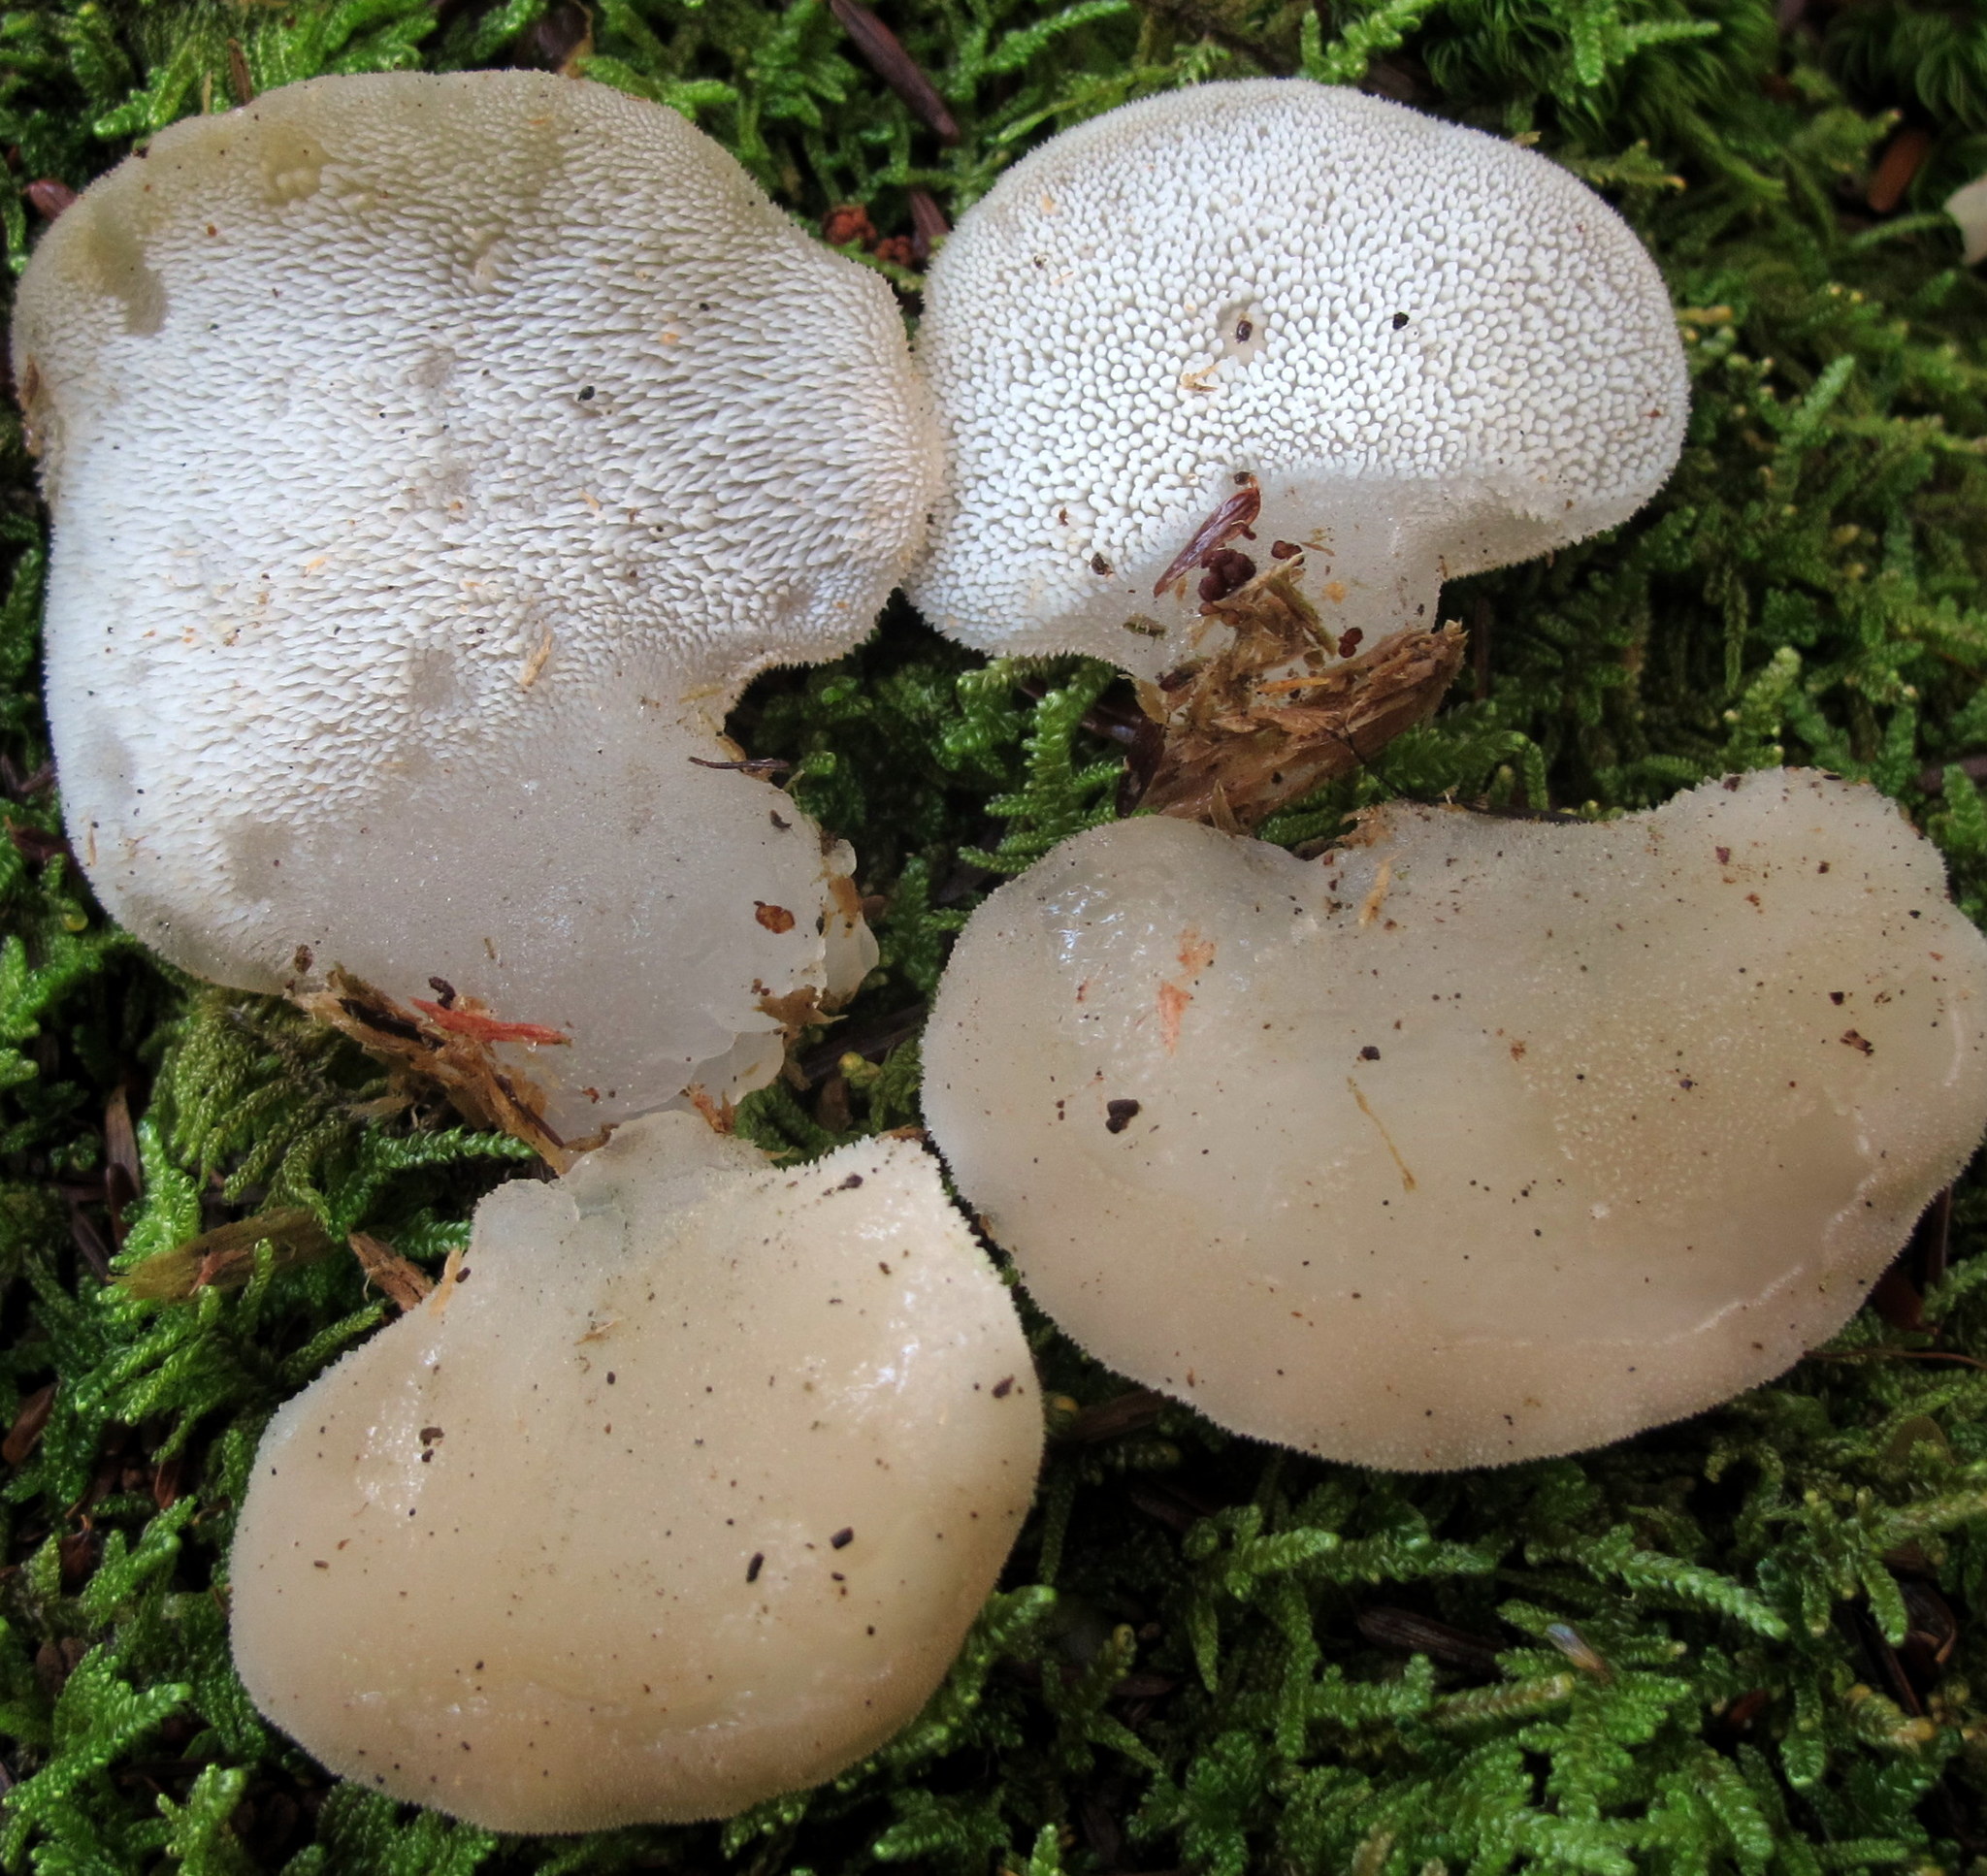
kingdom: Fungi
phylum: Basidiomycota
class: Agaricomycetes
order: Auriculariales
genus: Pseudohydnum
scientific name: Pseudohydnum gelatinosum
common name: Jelly tongue
